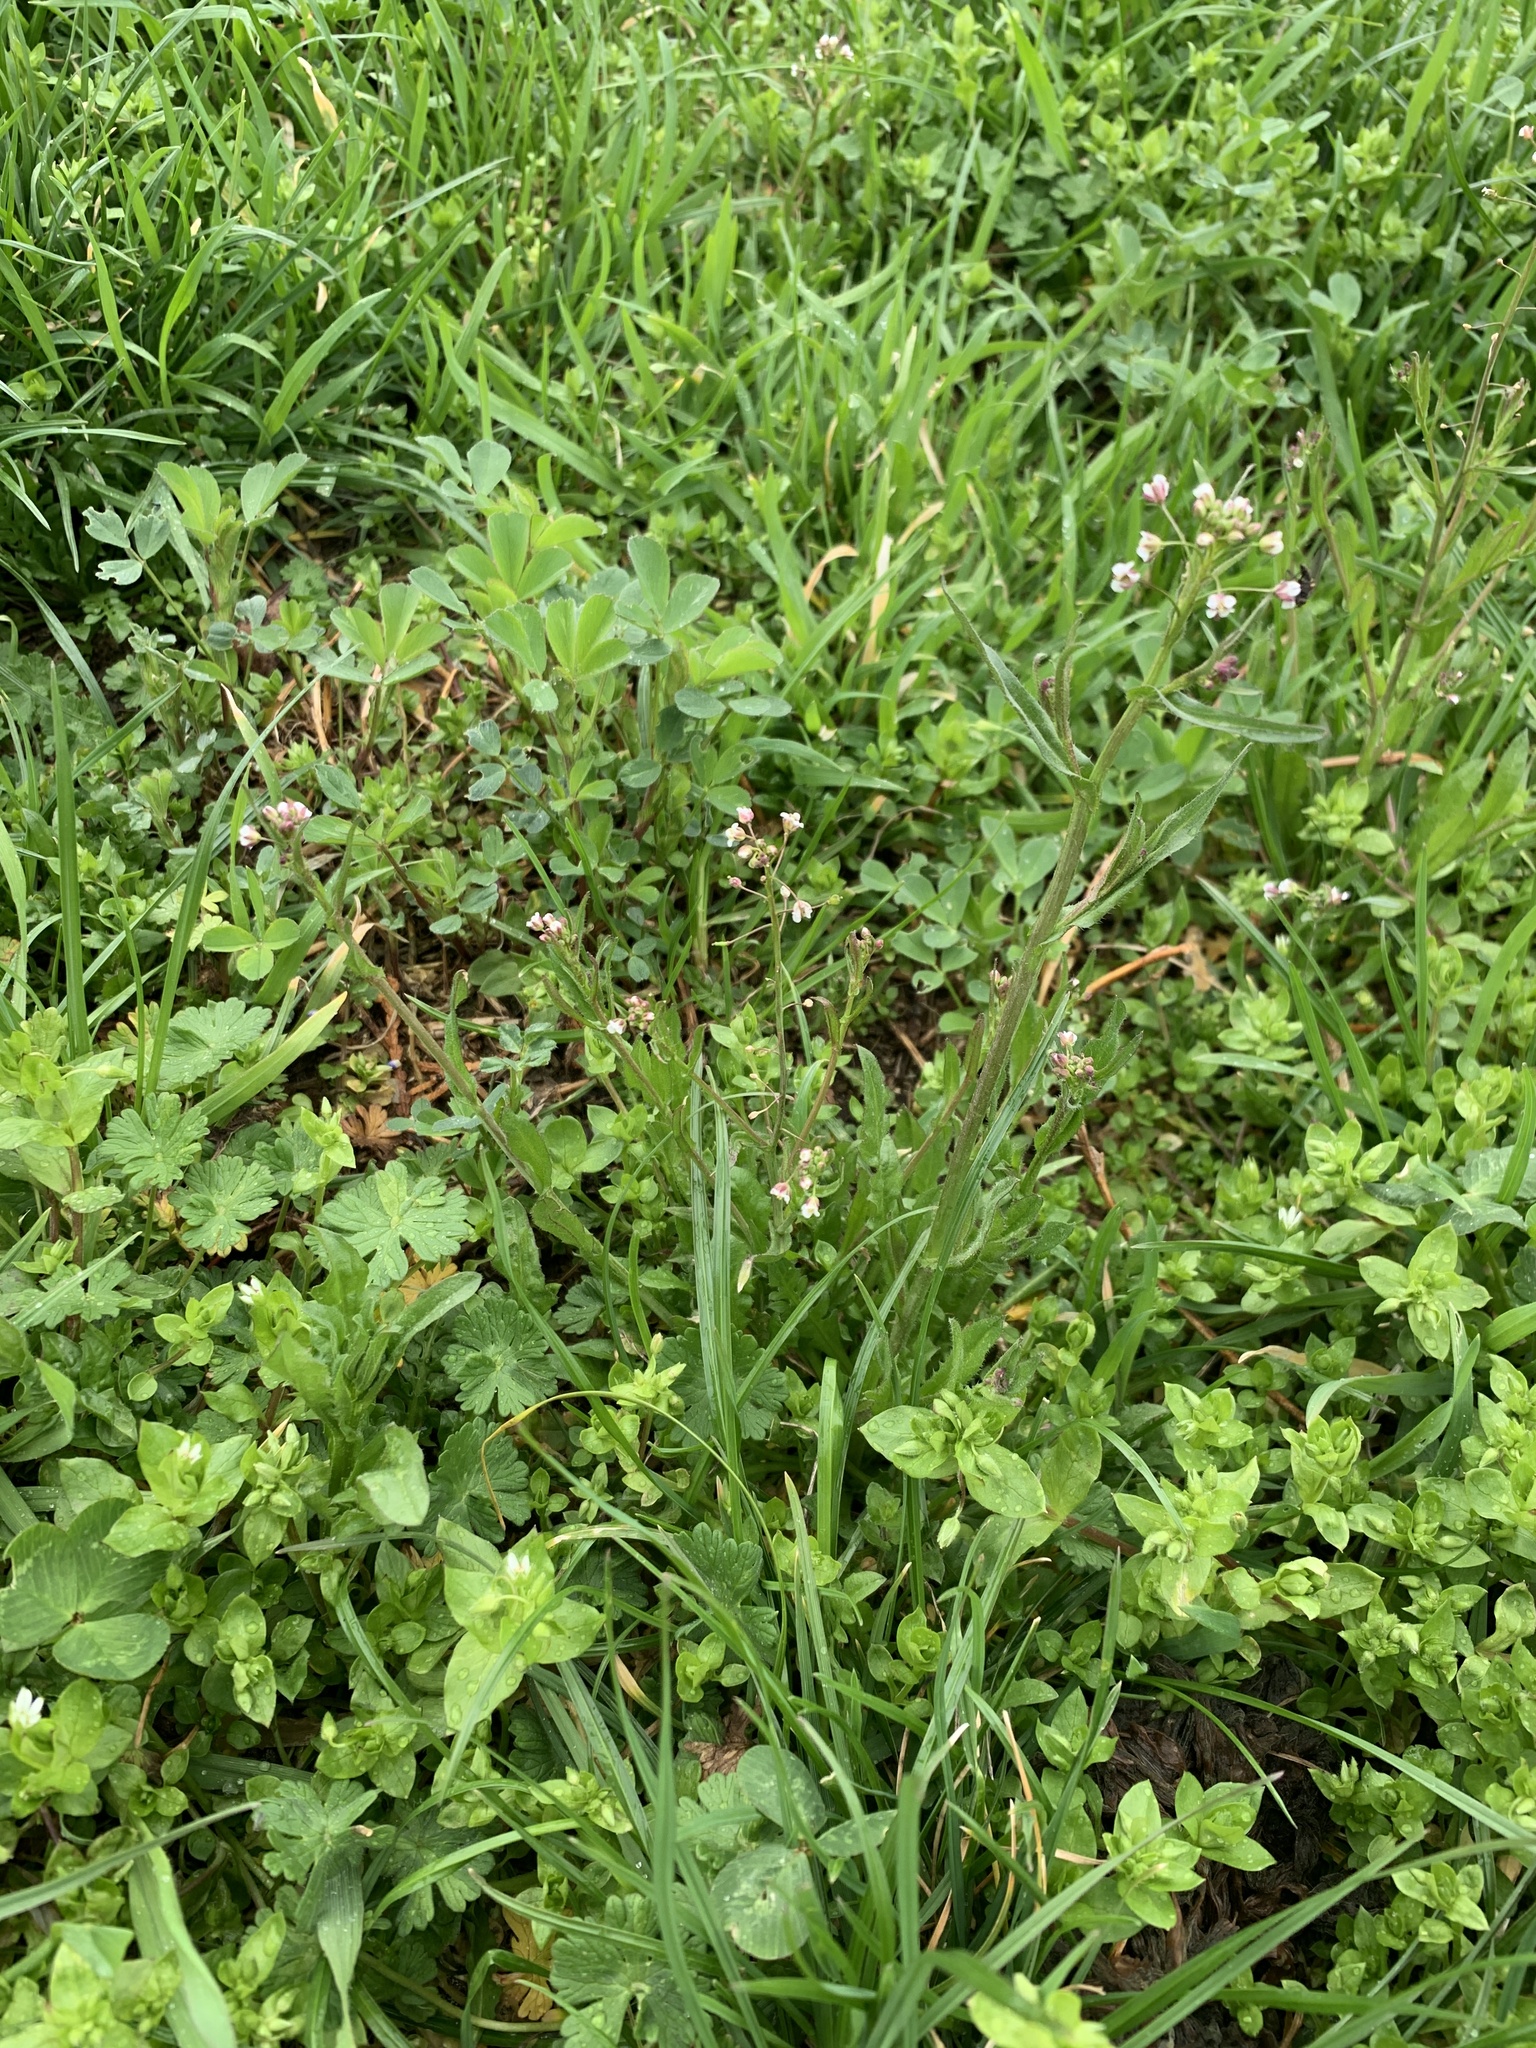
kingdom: Plantae
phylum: Tracheophyta
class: Magnoliopsida
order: Brassicales
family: Brassicaceae
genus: Capsella
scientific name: Capsella bursa-pastoris
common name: Shepherd's purse
